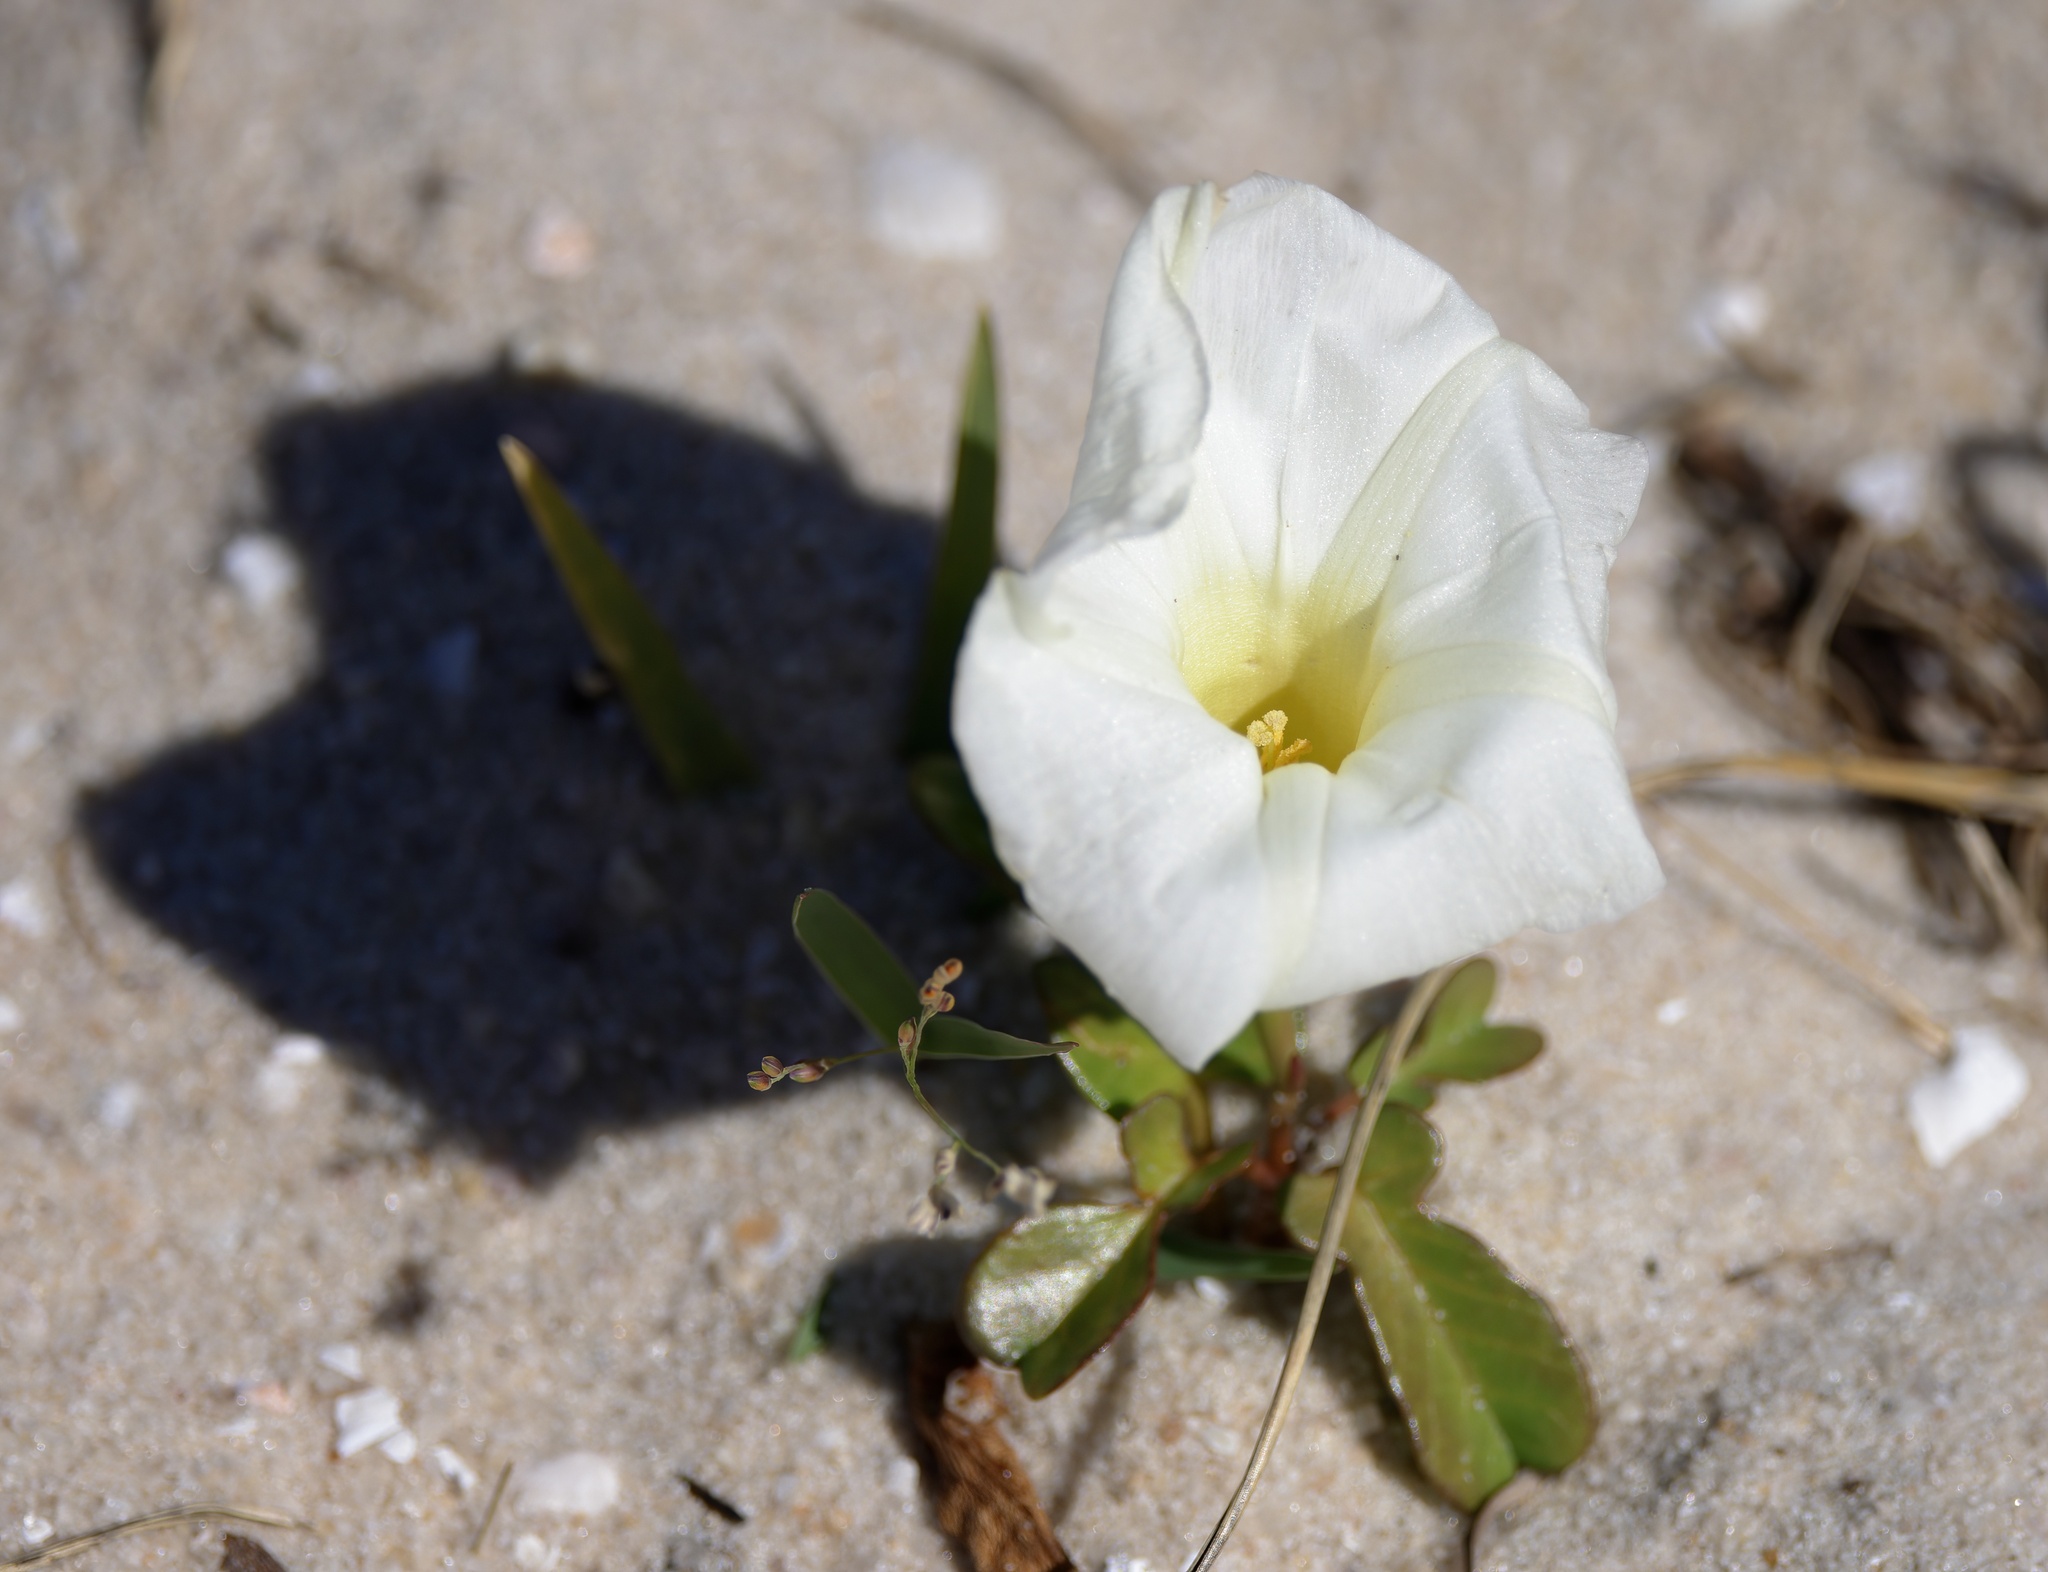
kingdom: Plantae
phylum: Tracheophyta
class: Magnoliopsida
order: Solanales
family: Convolvulaceae
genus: Ipomoea
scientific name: Ipomoea imperati
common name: Fiddle-leaf morning-glory
